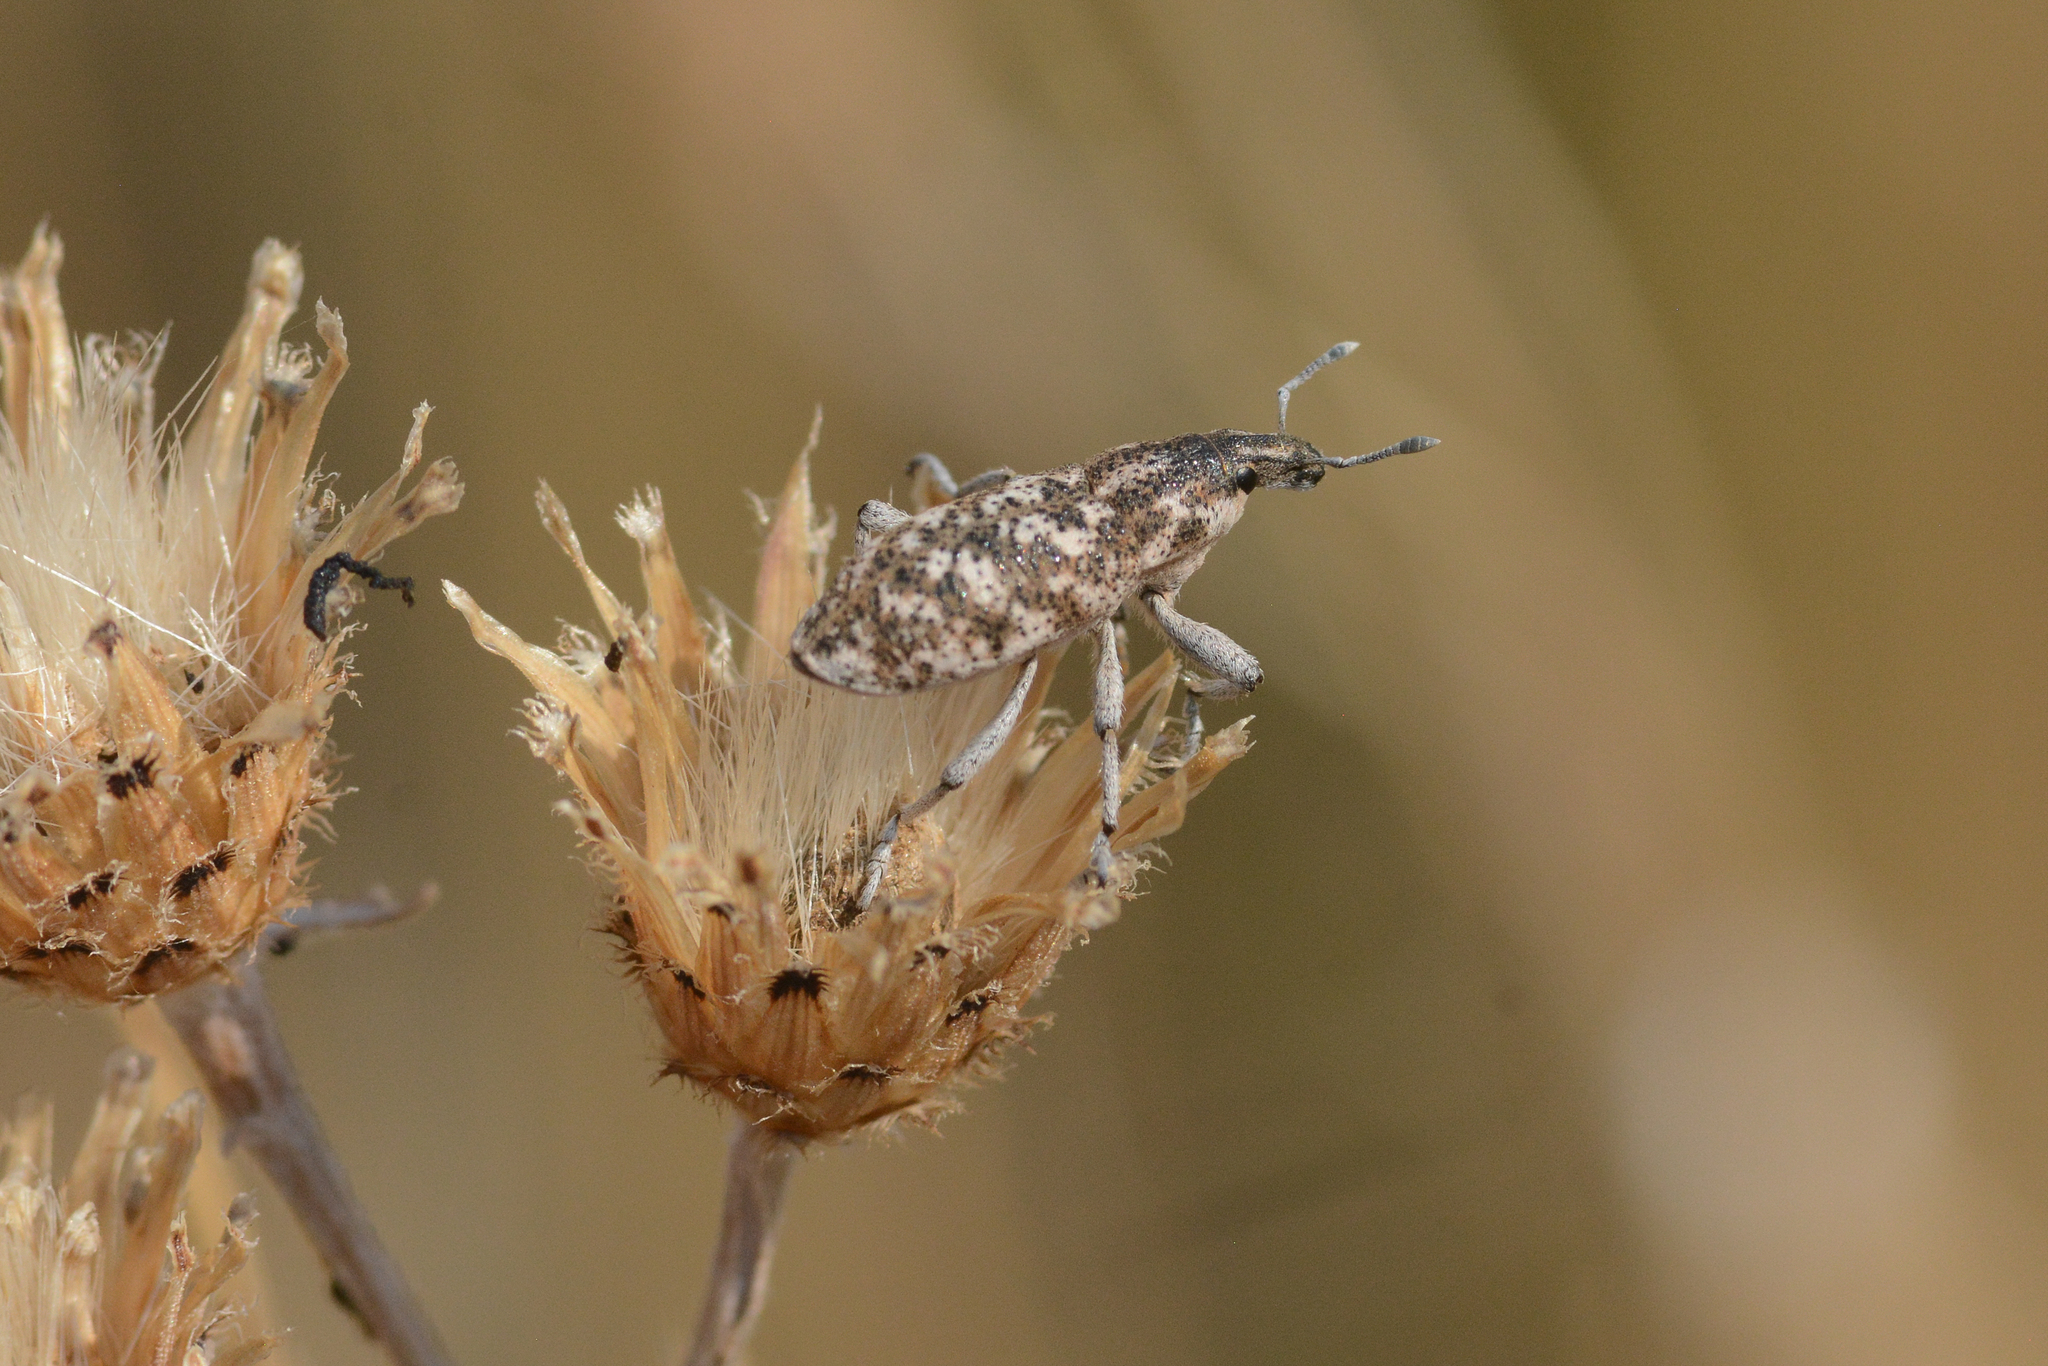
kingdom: Animalia
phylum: Arthropoda
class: Insecta
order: Coleoptera
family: Curculionidae
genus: Cleonus
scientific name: Cleonus achates
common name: Root weevil
